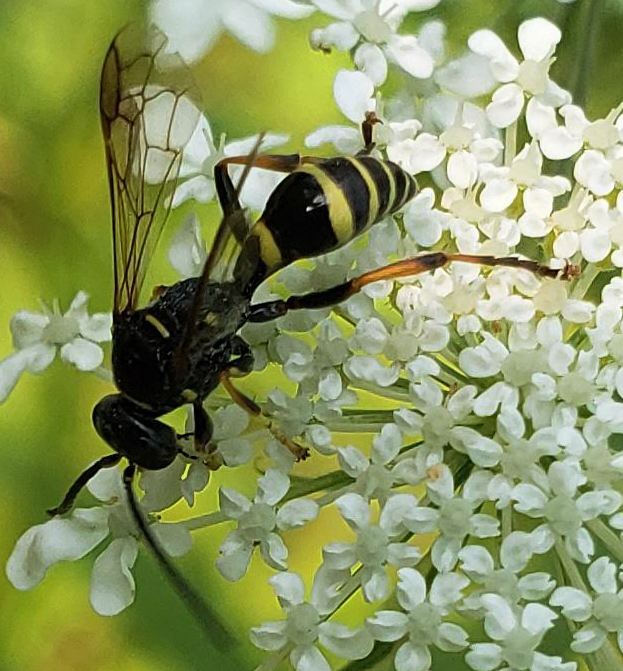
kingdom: Animalia
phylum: Arthropoda
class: Insecta
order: Hymenoptera
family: Crabronidae
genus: Gorytes
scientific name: Gorytes
